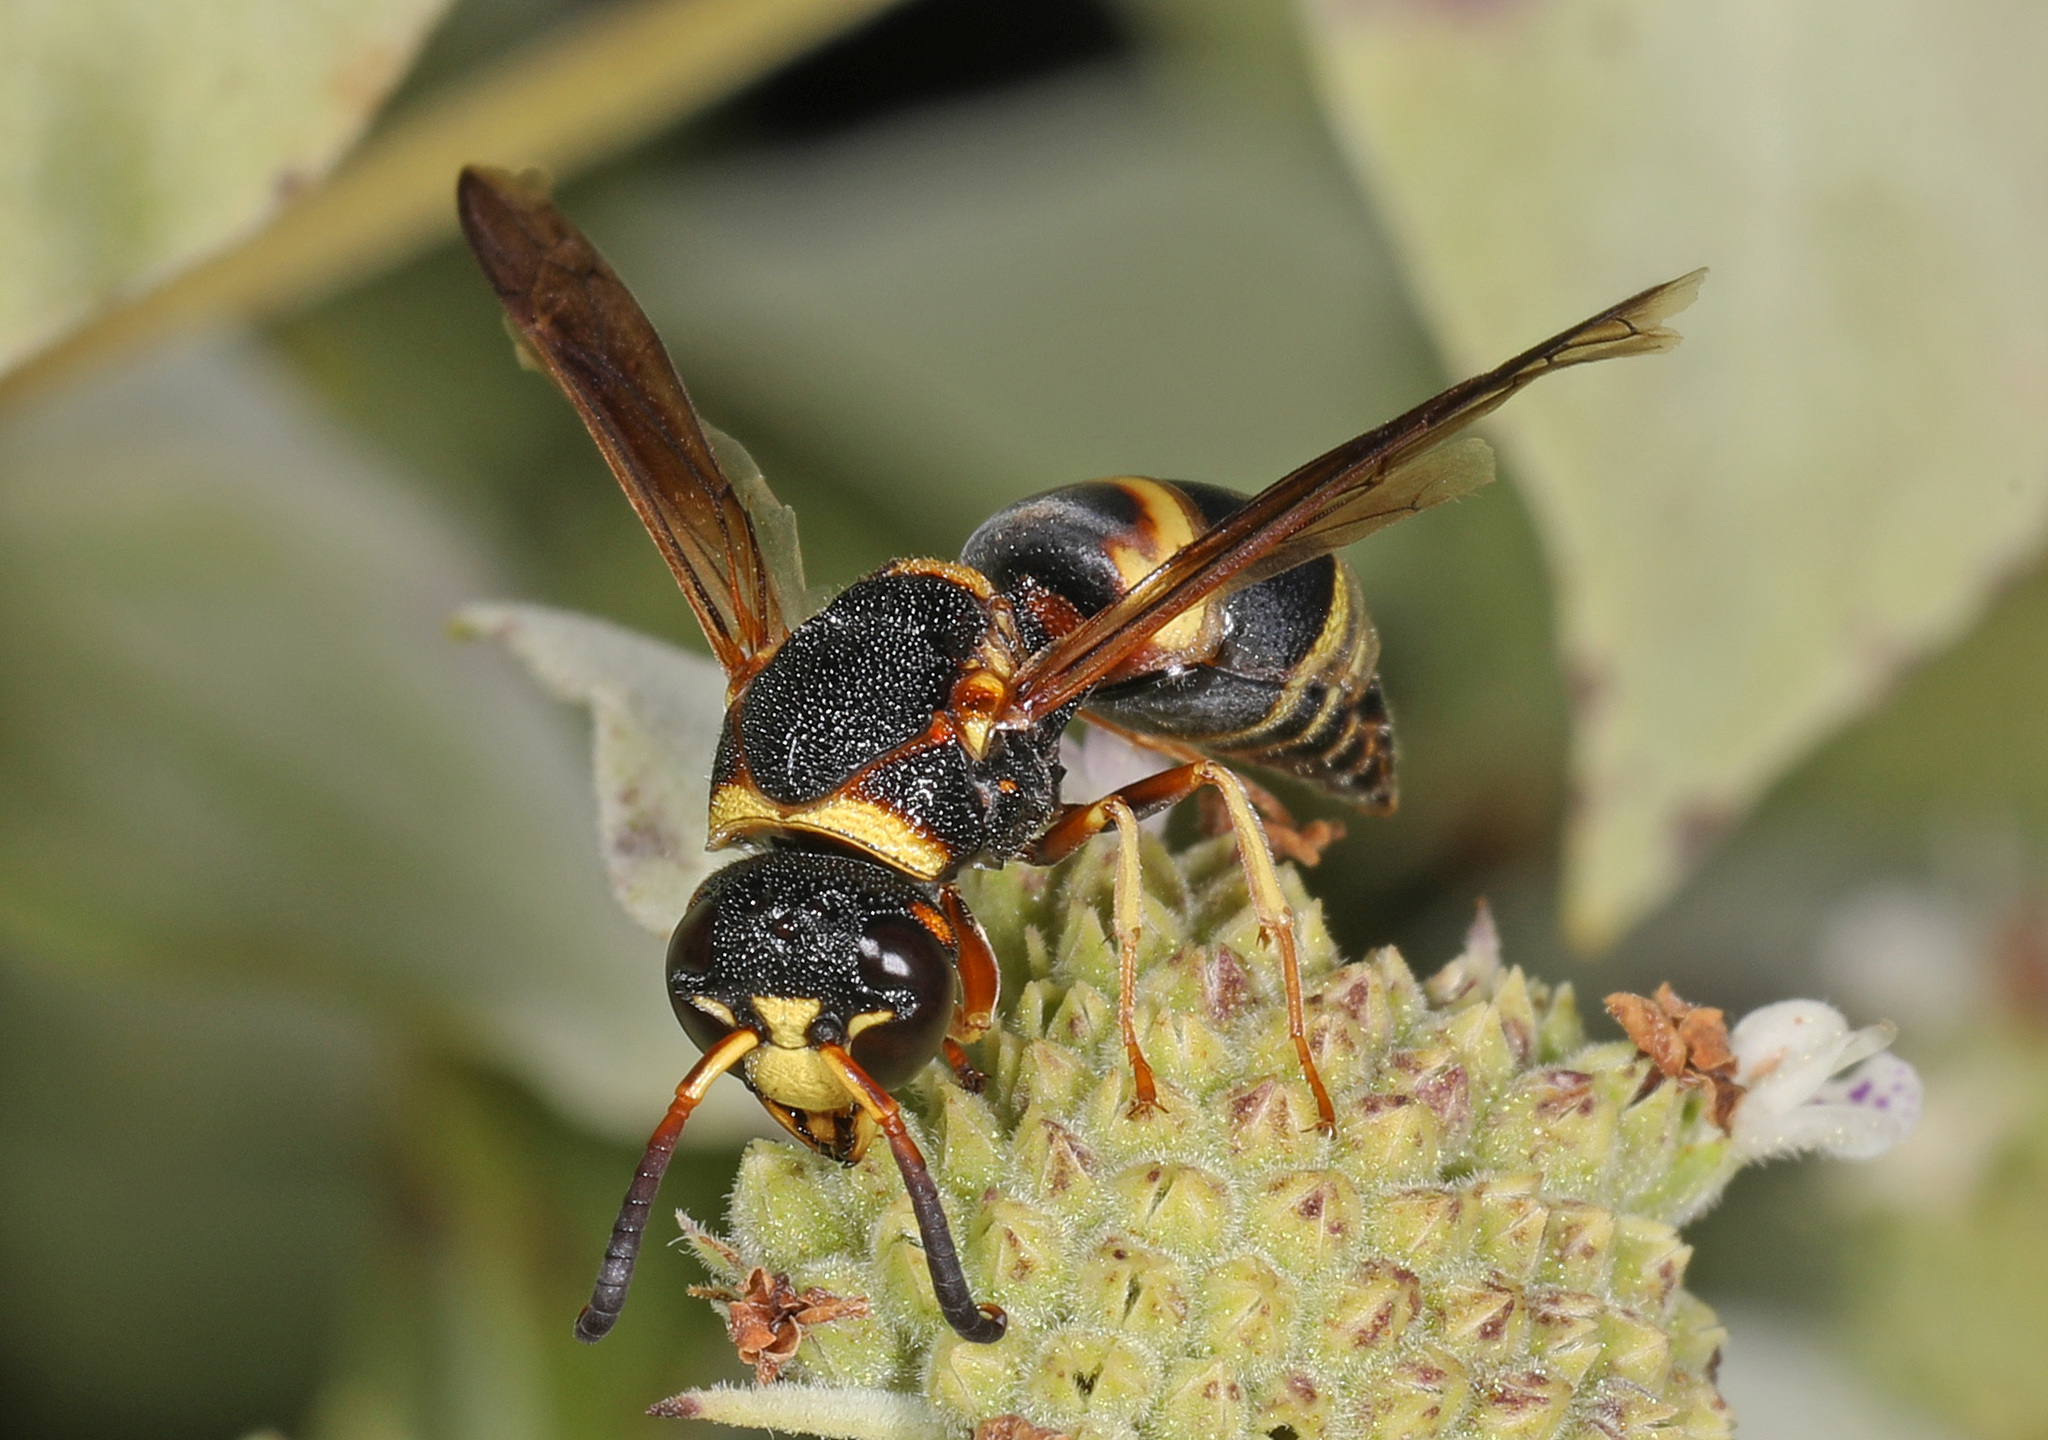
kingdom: Animalia
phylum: Arthropoda
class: Insecta
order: Hymenoptera
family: Eumenidae
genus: Euodynerus
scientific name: Euodynerus hidalgo
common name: Wasp
